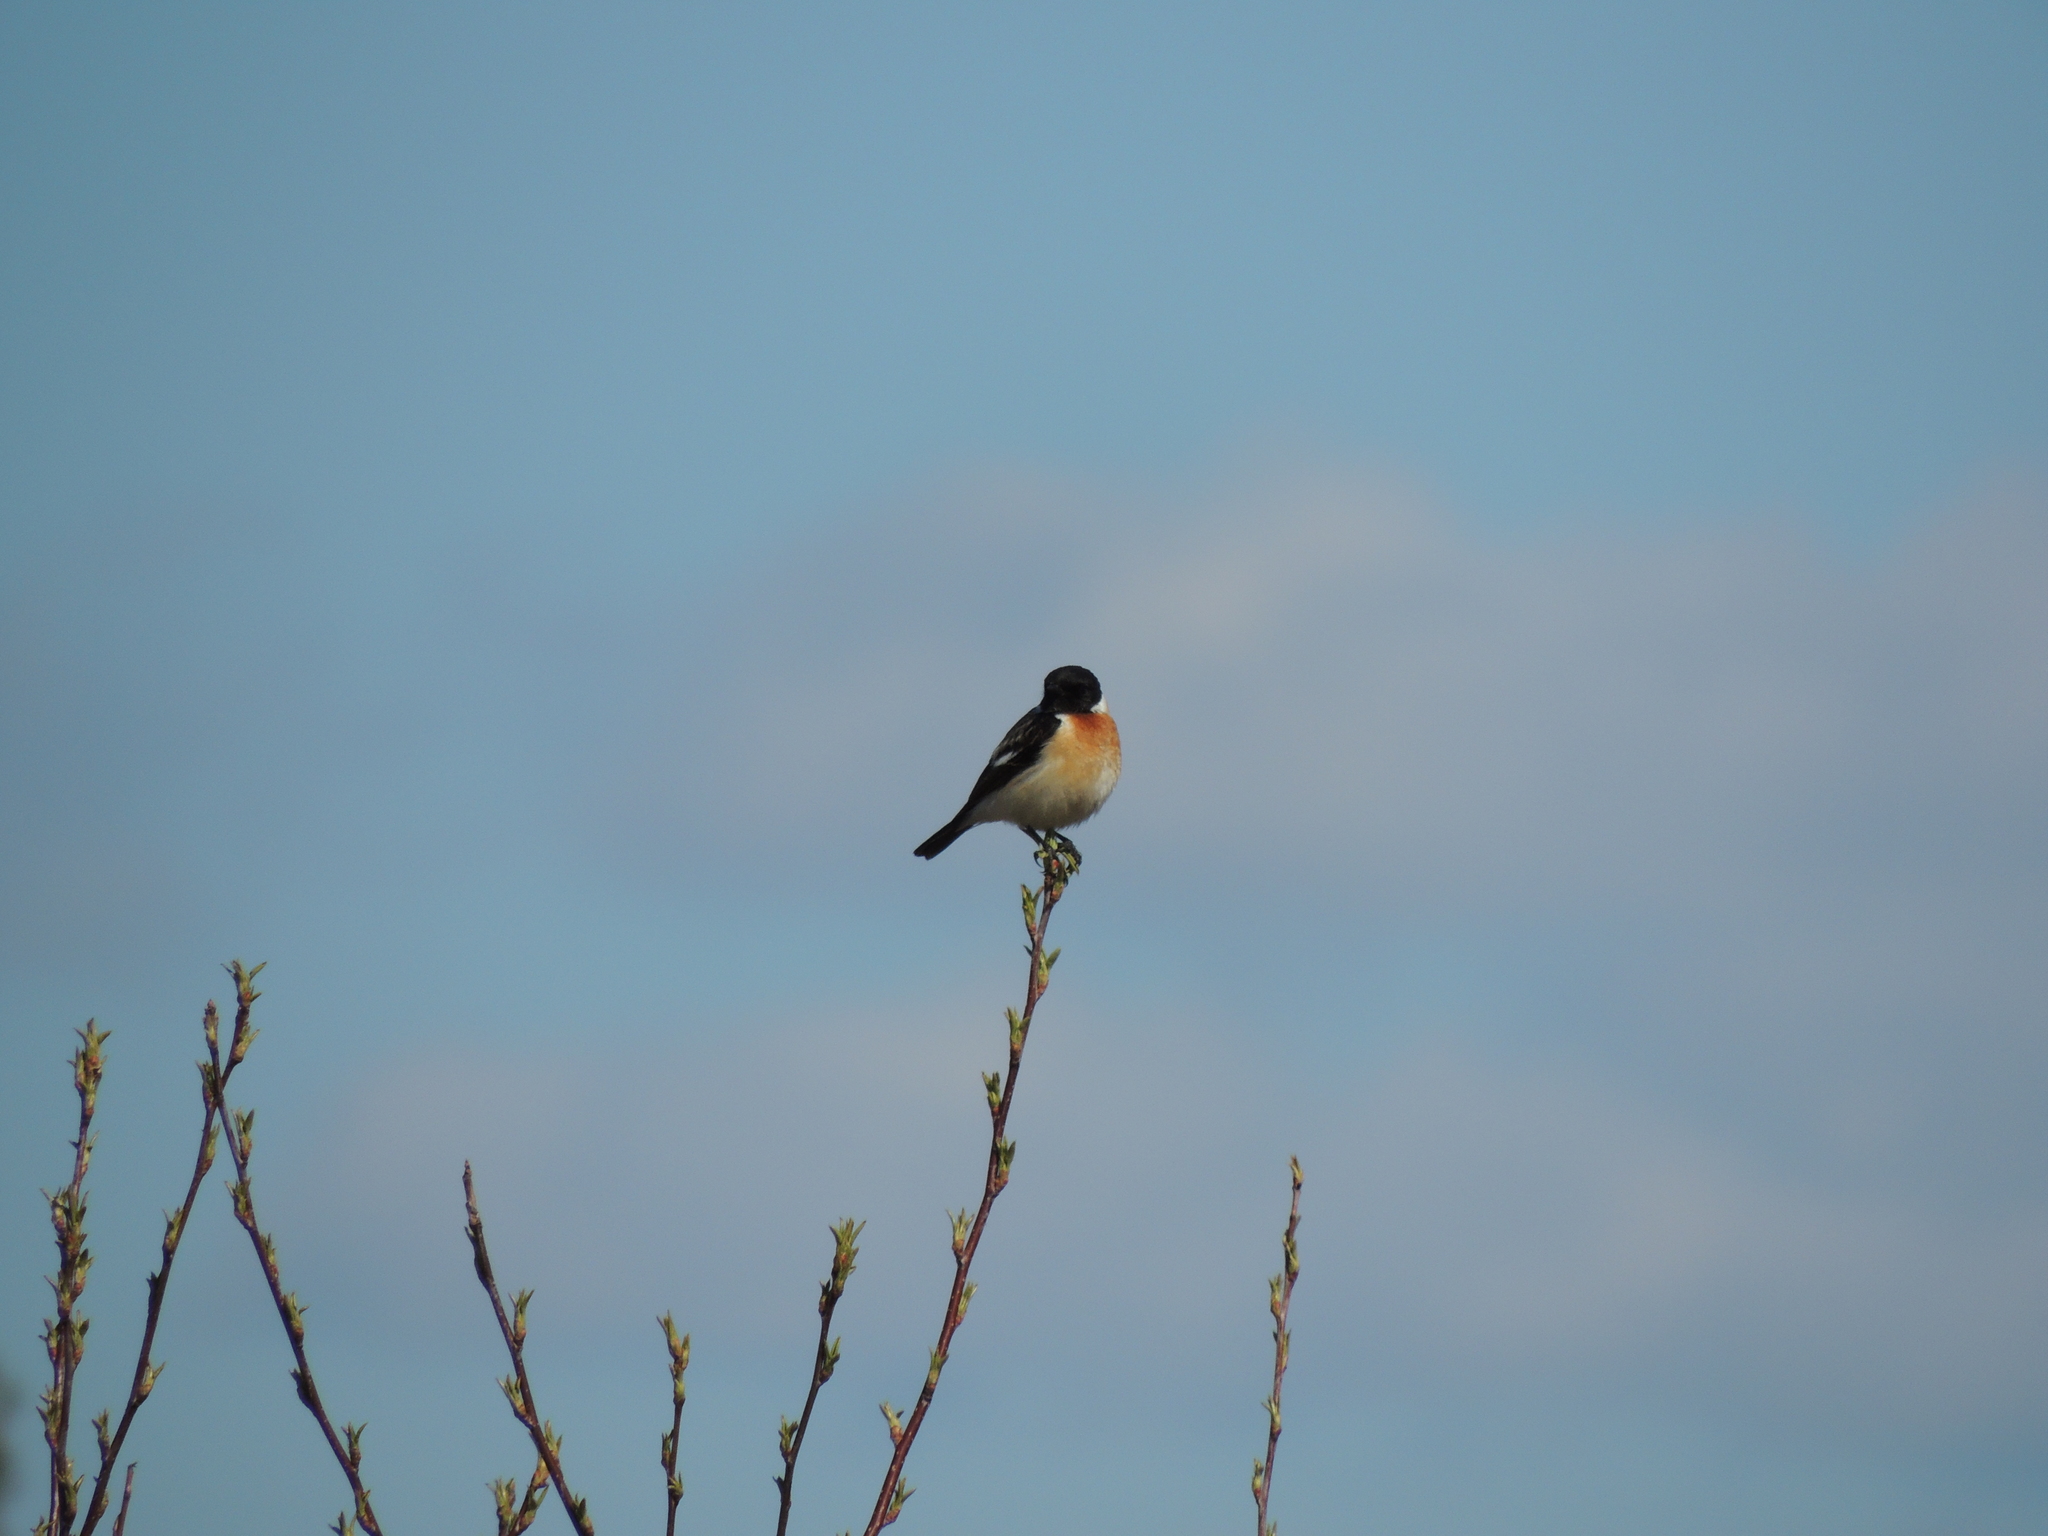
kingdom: Animalia
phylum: Chordata
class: Aves
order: Passeriformes
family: Muscicapidae
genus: Saxicola
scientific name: Saxicola maurus
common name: Siberian stonechat
